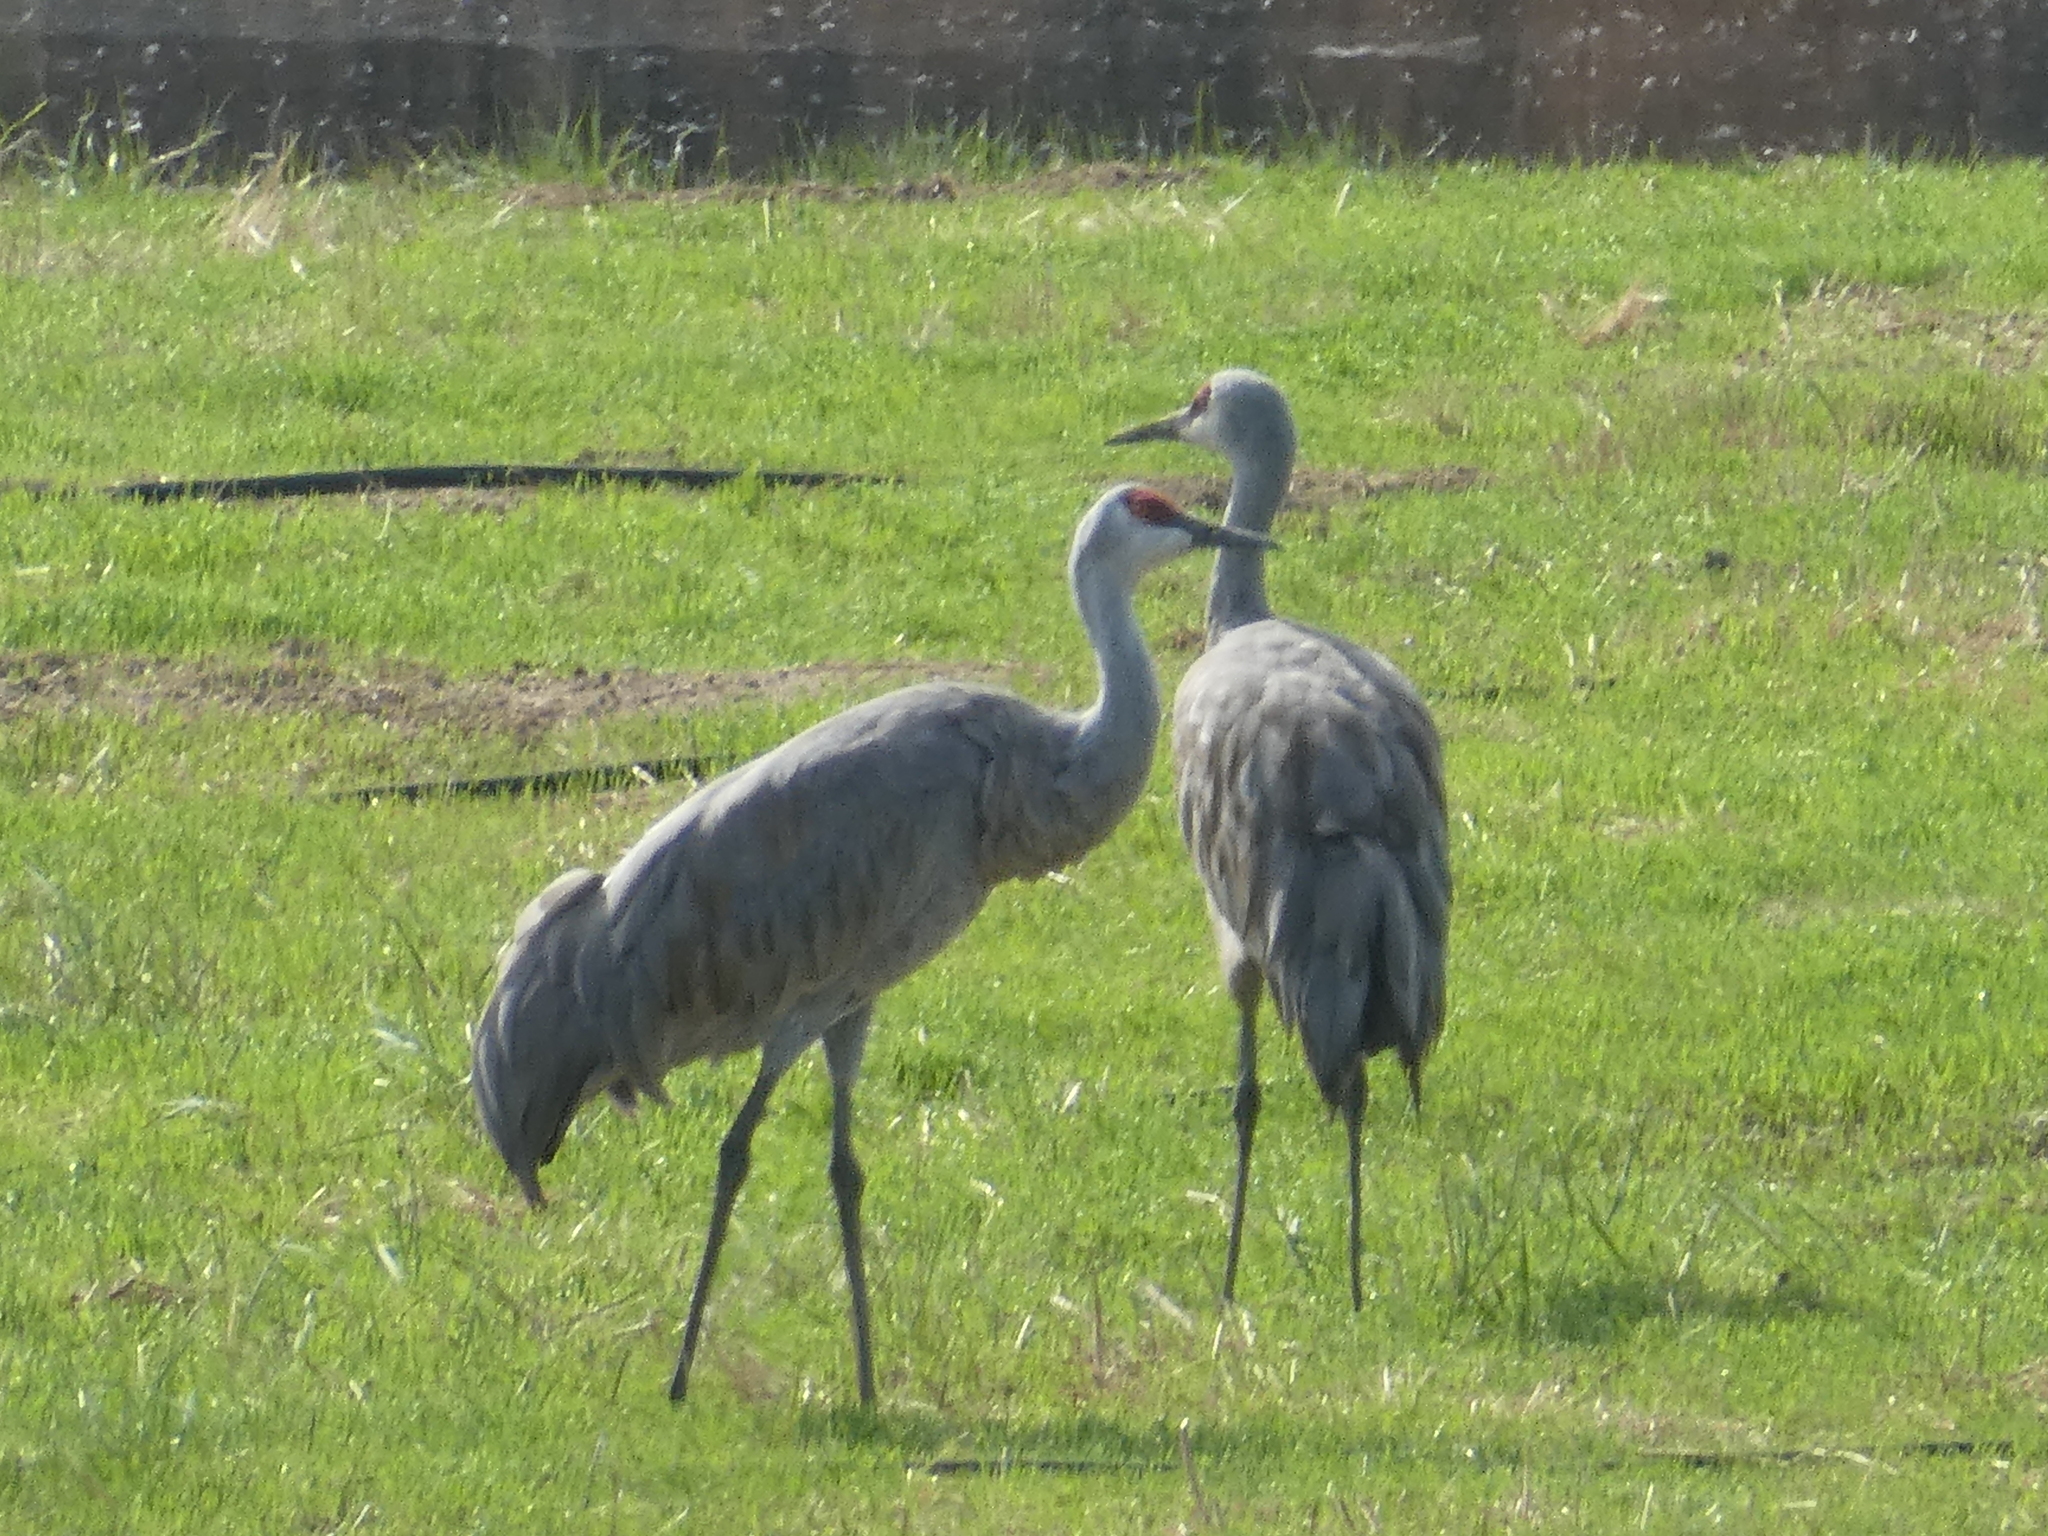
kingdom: Animalia
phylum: Chordata
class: Aves
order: Gruiformes
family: Gruidae
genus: Grus
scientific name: Grus canadensis
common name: Sandhill crane
